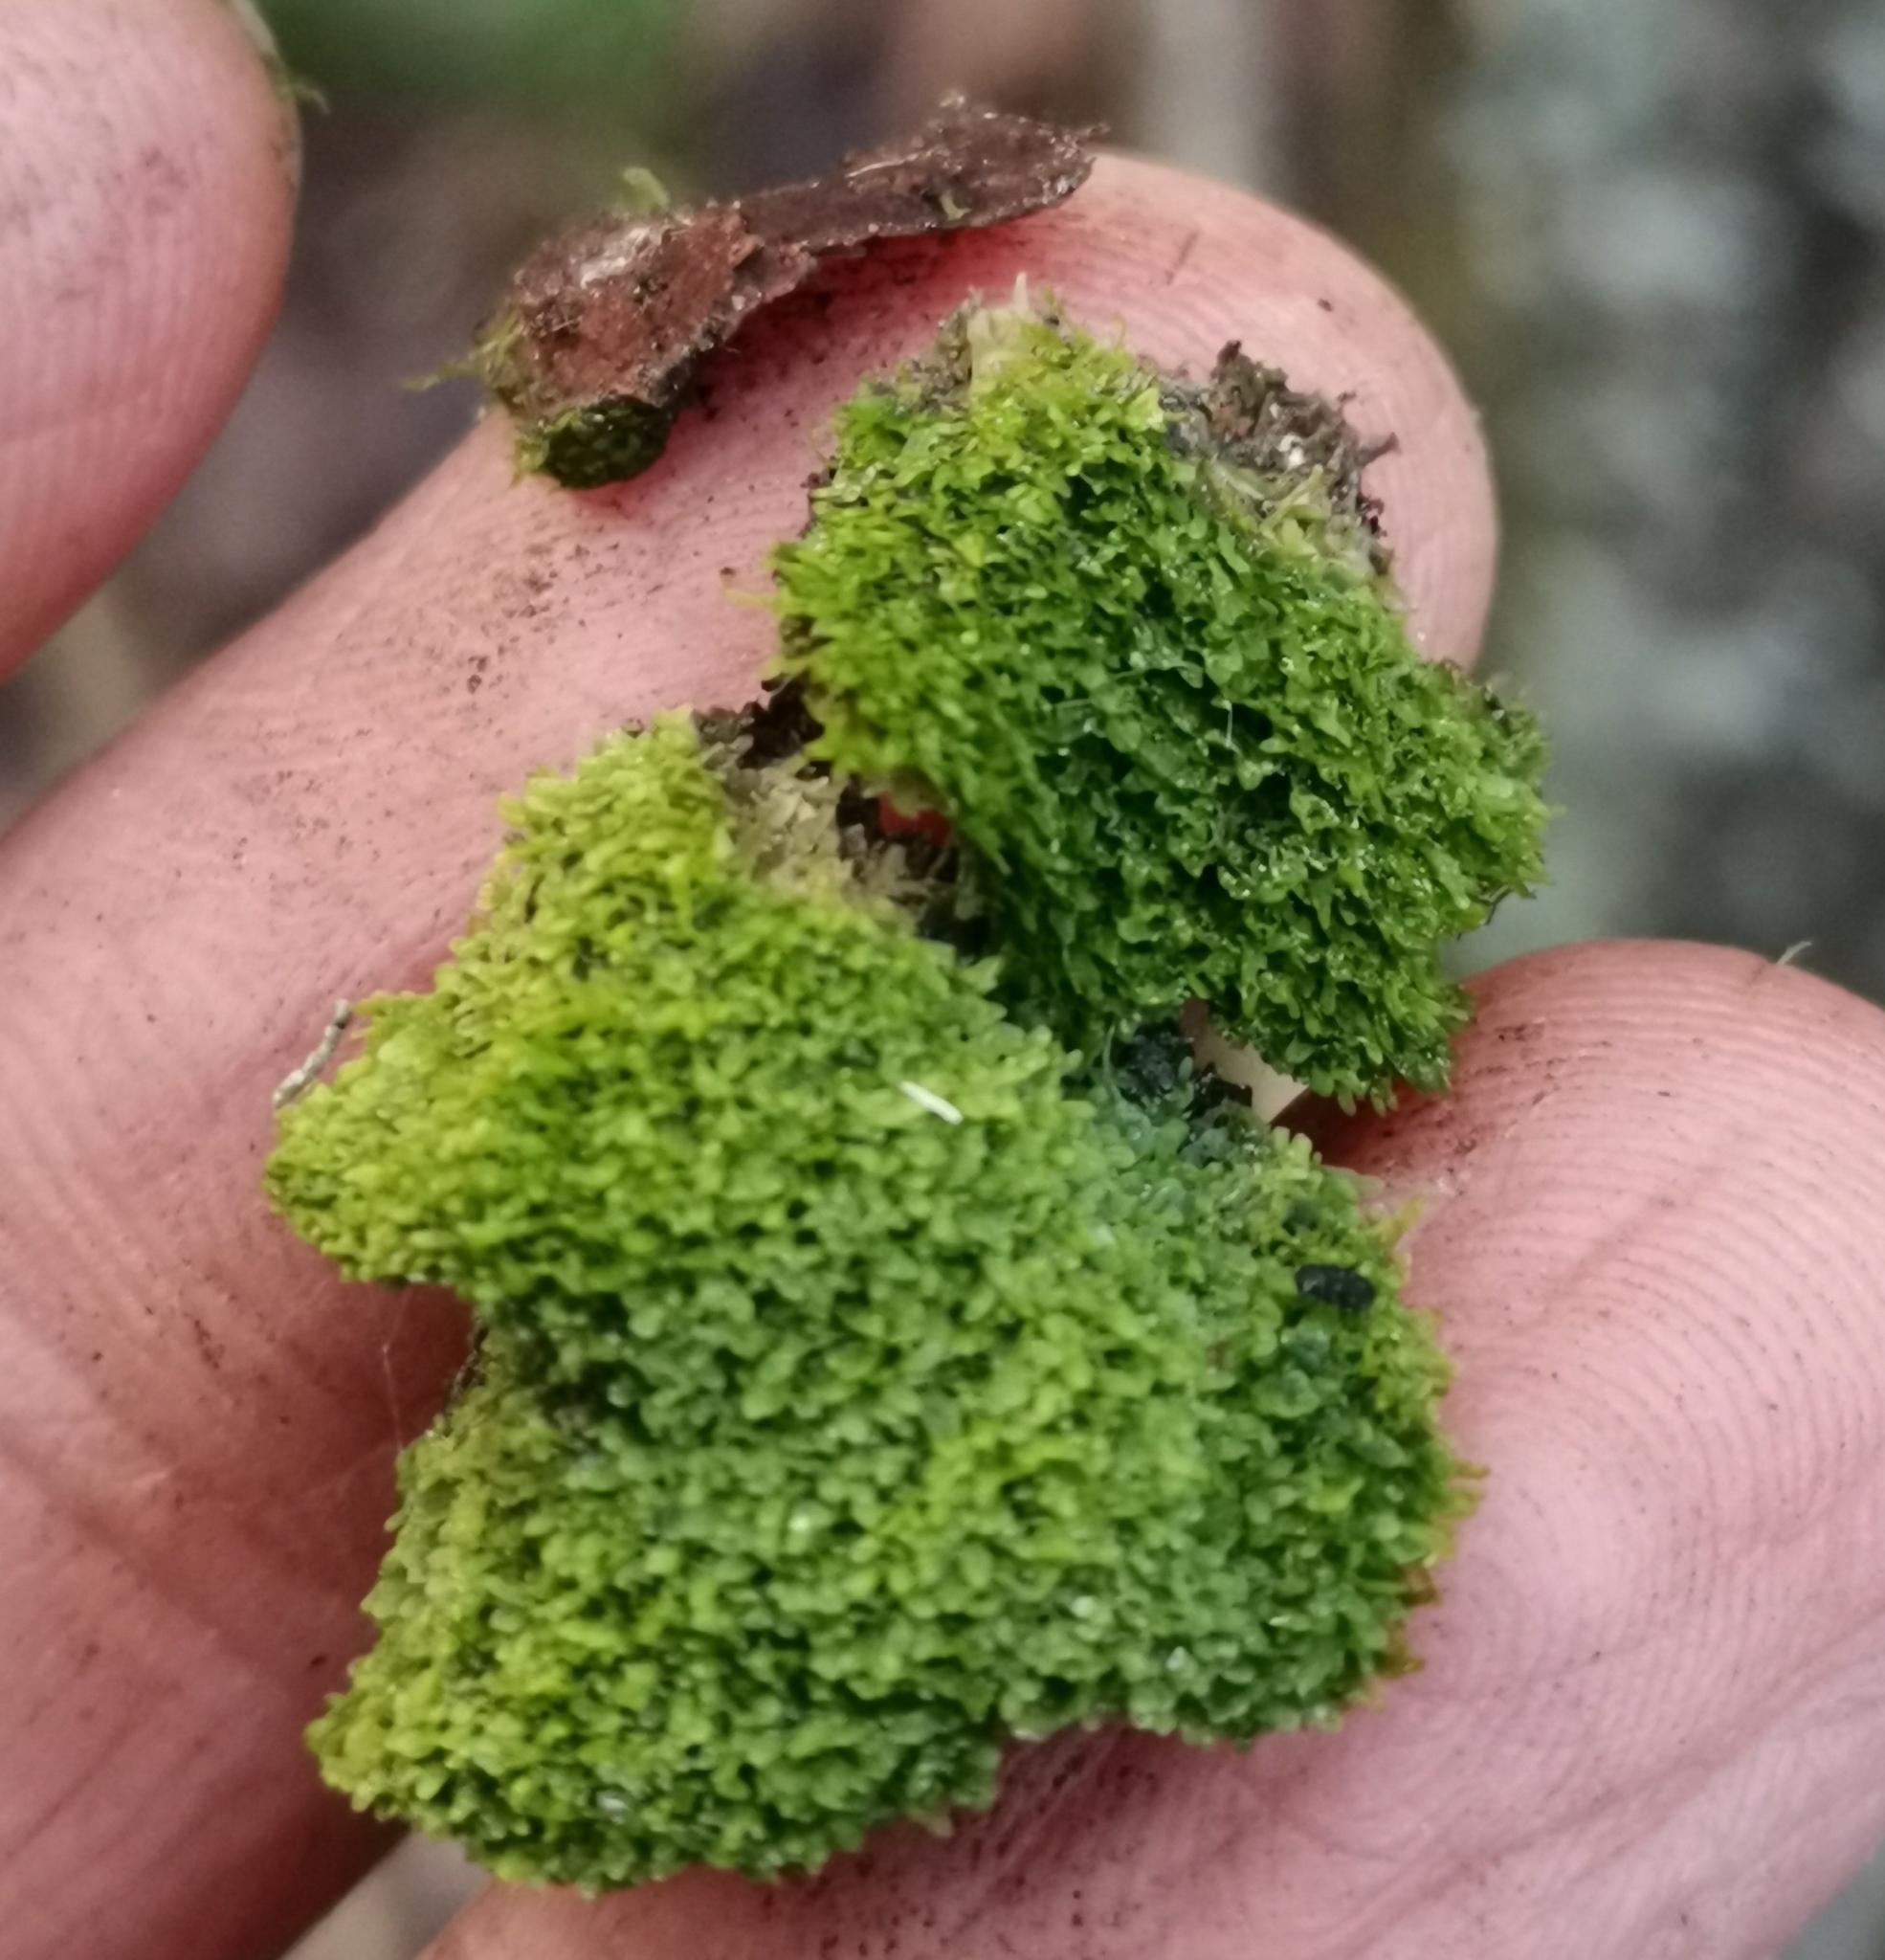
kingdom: Plantae
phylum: Marchantiophyta
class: Jungermanniopsida
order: Metzgeriales
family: Metzgeriaceae
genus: Metzgeria
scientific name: Metzgeria furcata
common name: Forked veilwort
